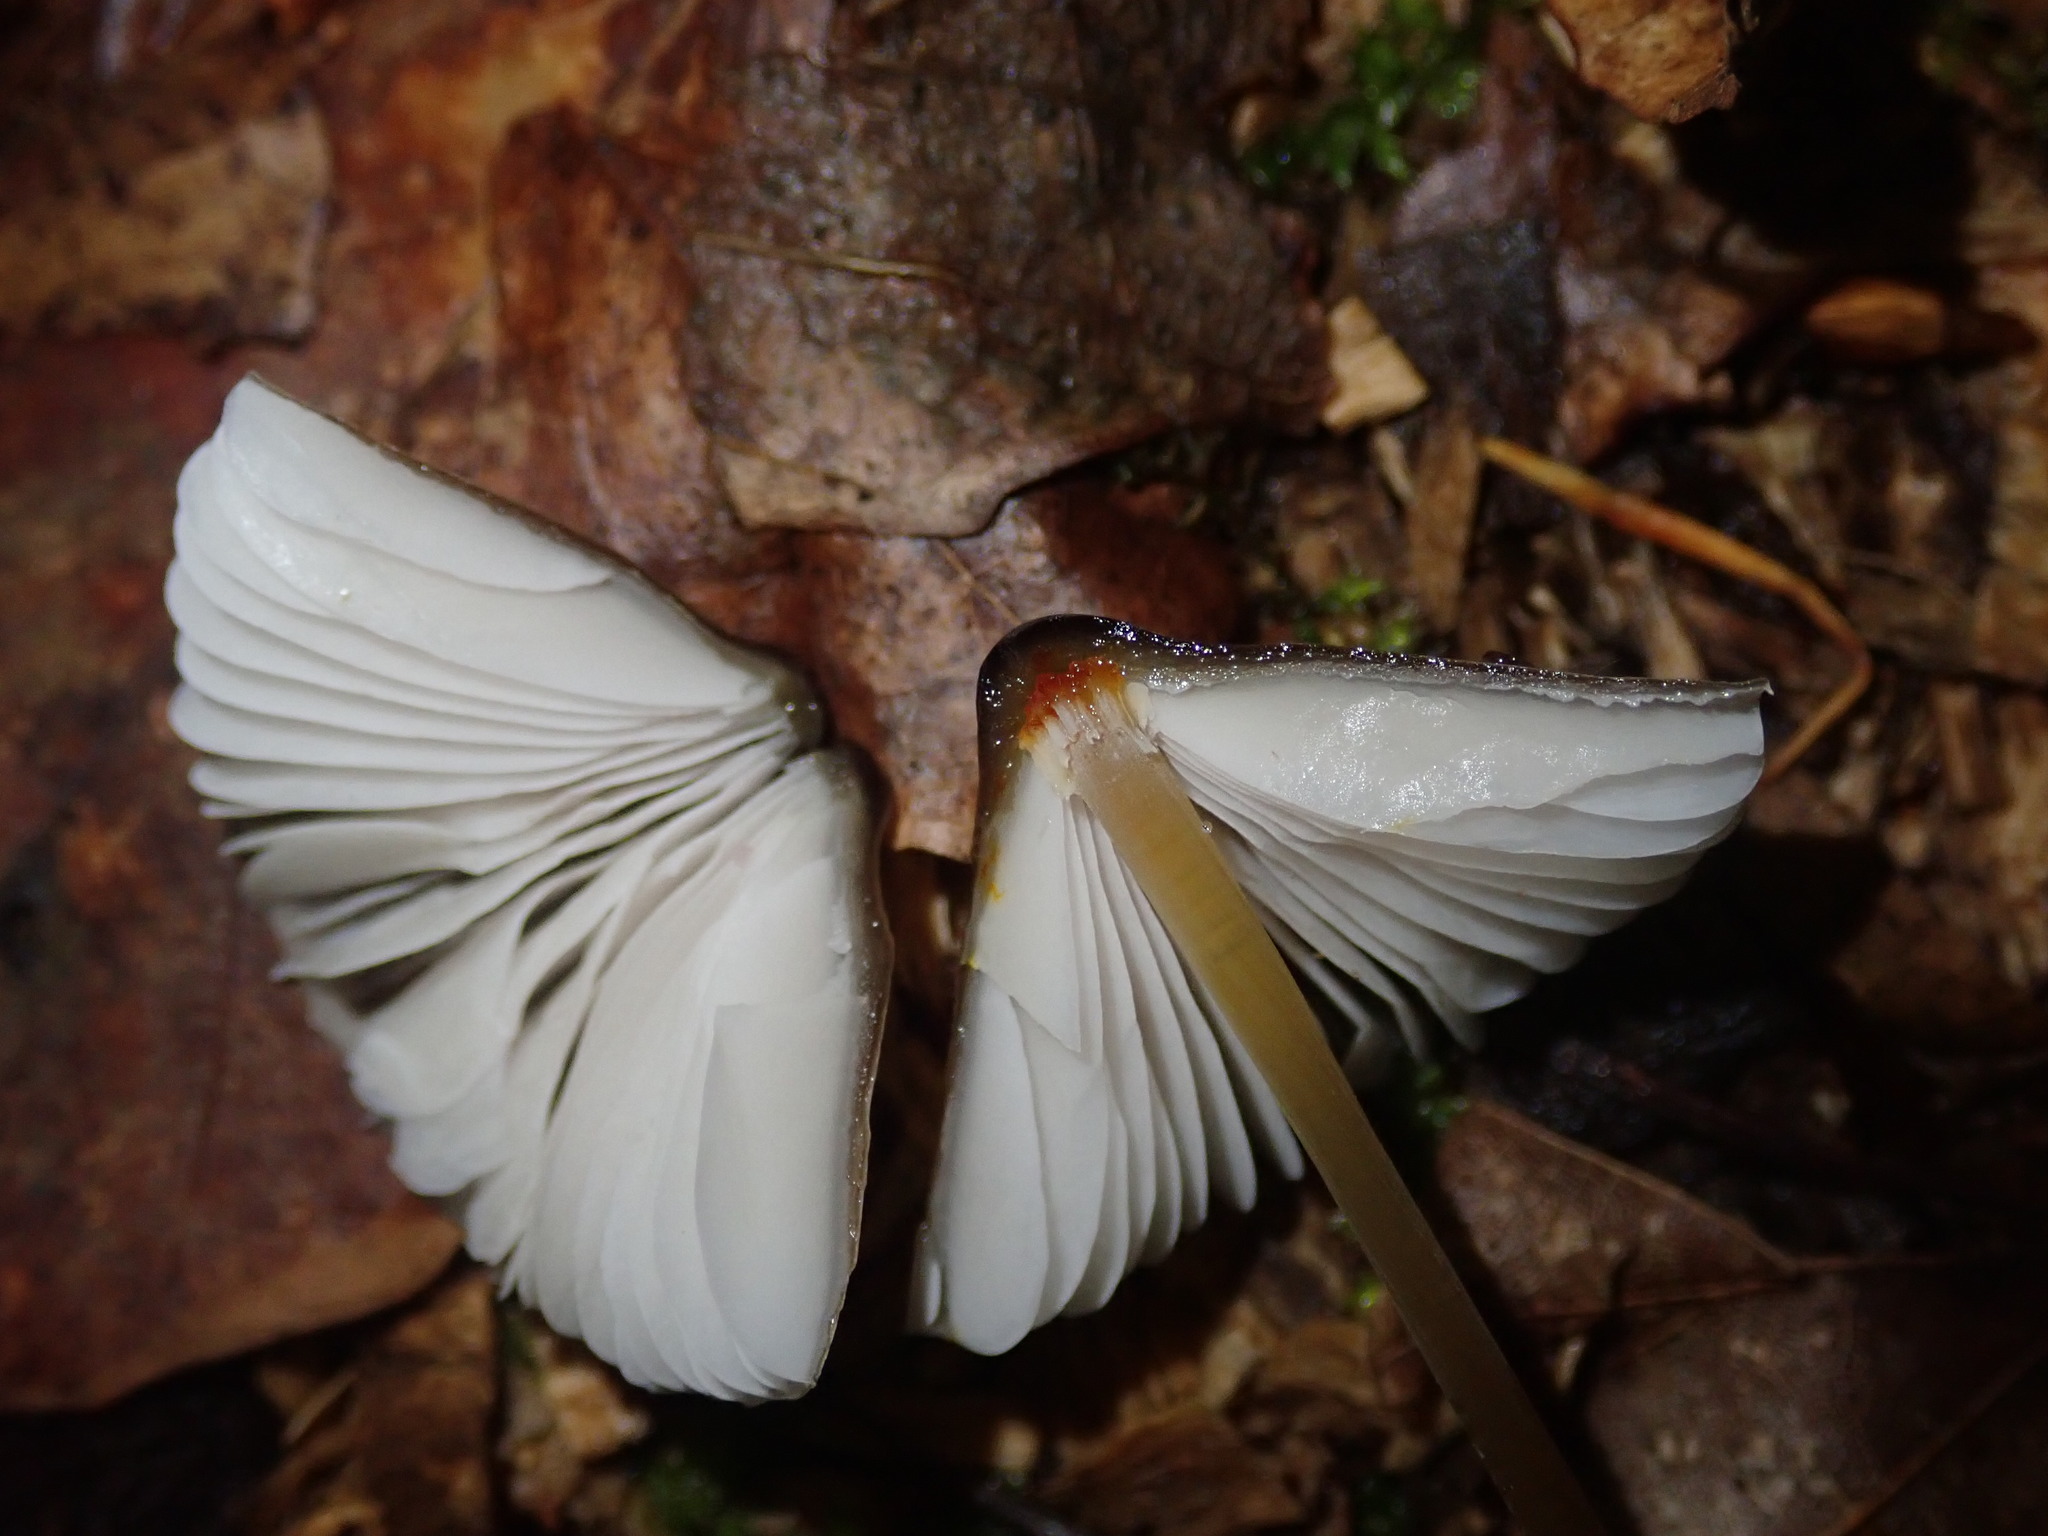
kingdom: Fungi
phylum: Basidiomycota
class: Agaricomycetes
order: Agaricales
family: Mycenaceae
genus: Mycena
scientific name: Mycena crocata
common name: Saffrondrop bonnet
